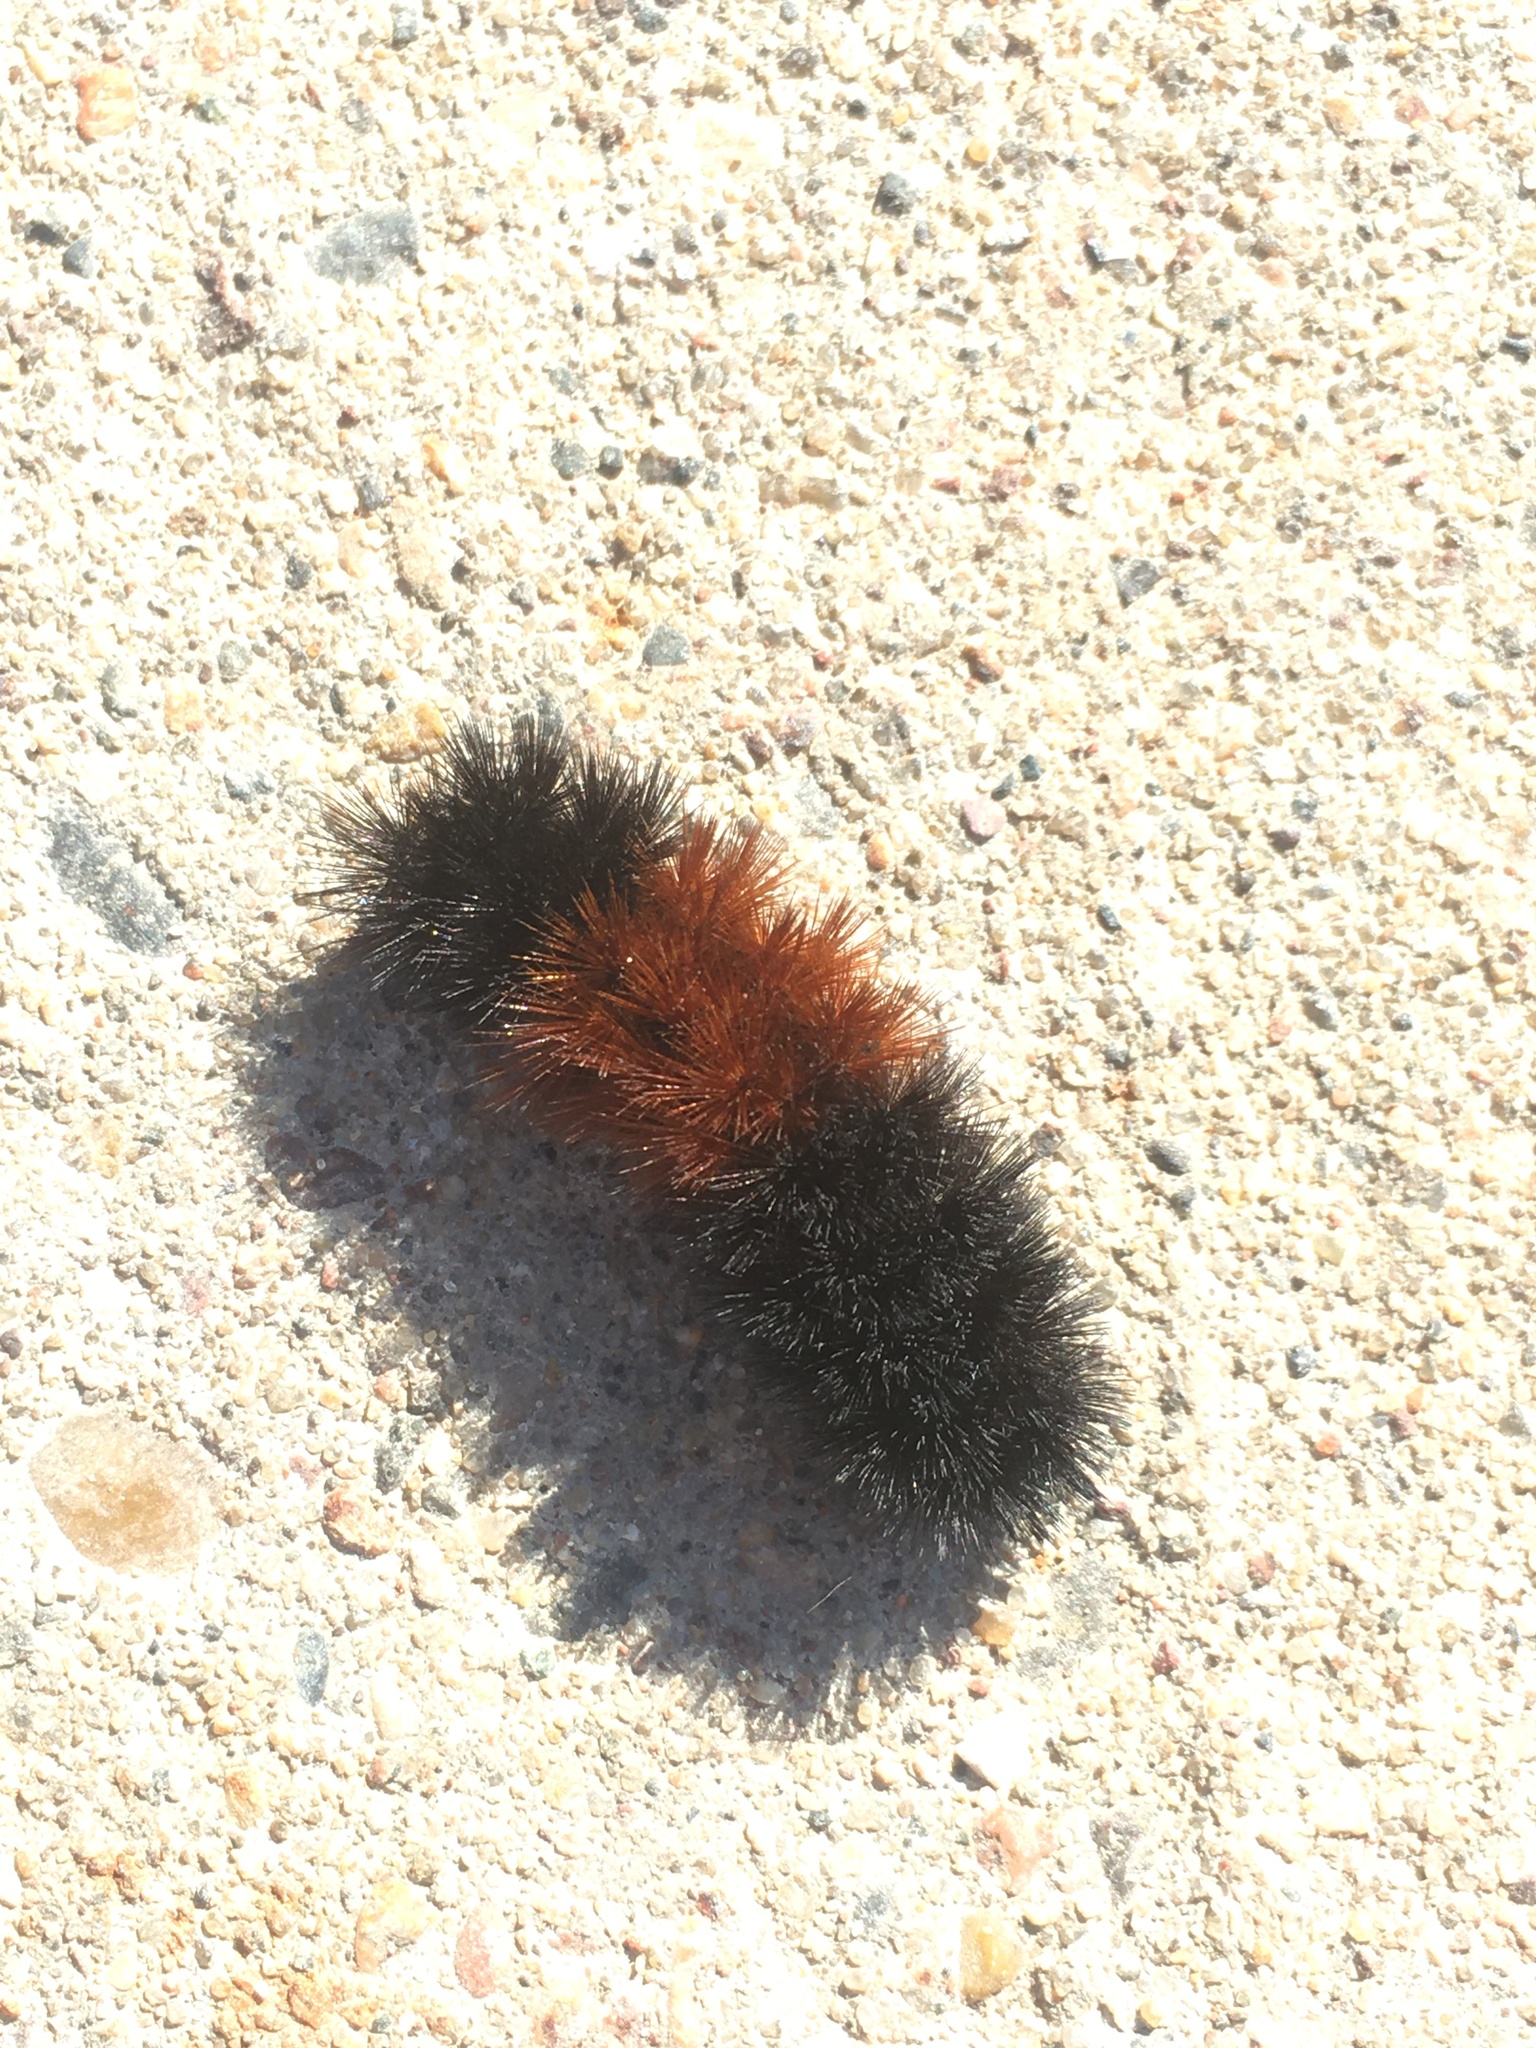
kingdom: Animalia
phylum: Arthropoda
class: Insecta
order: Lepidoptera
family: Erebidae
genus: Pyrrharctia
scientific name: Pyrrharctia isabella
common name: Isabella tiger moth
